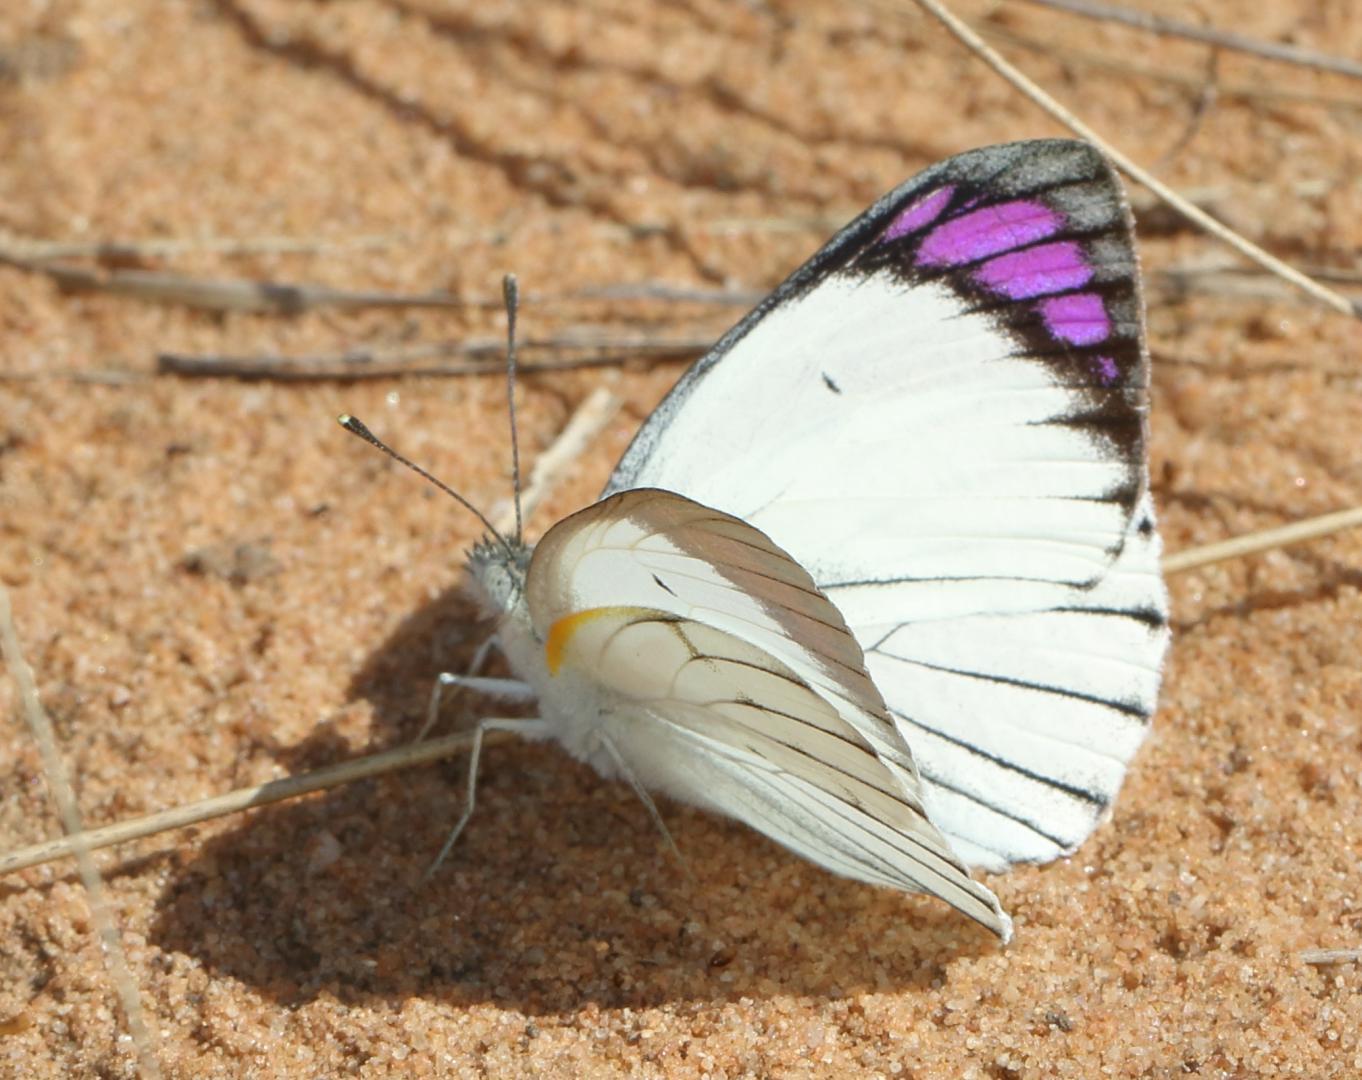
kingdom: Animalia
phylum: Arthropoda
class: Insecta
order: Lepidoptera
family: Pieridae
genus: Colotis
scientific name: Colotis ione
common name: Bushveld purple tip
